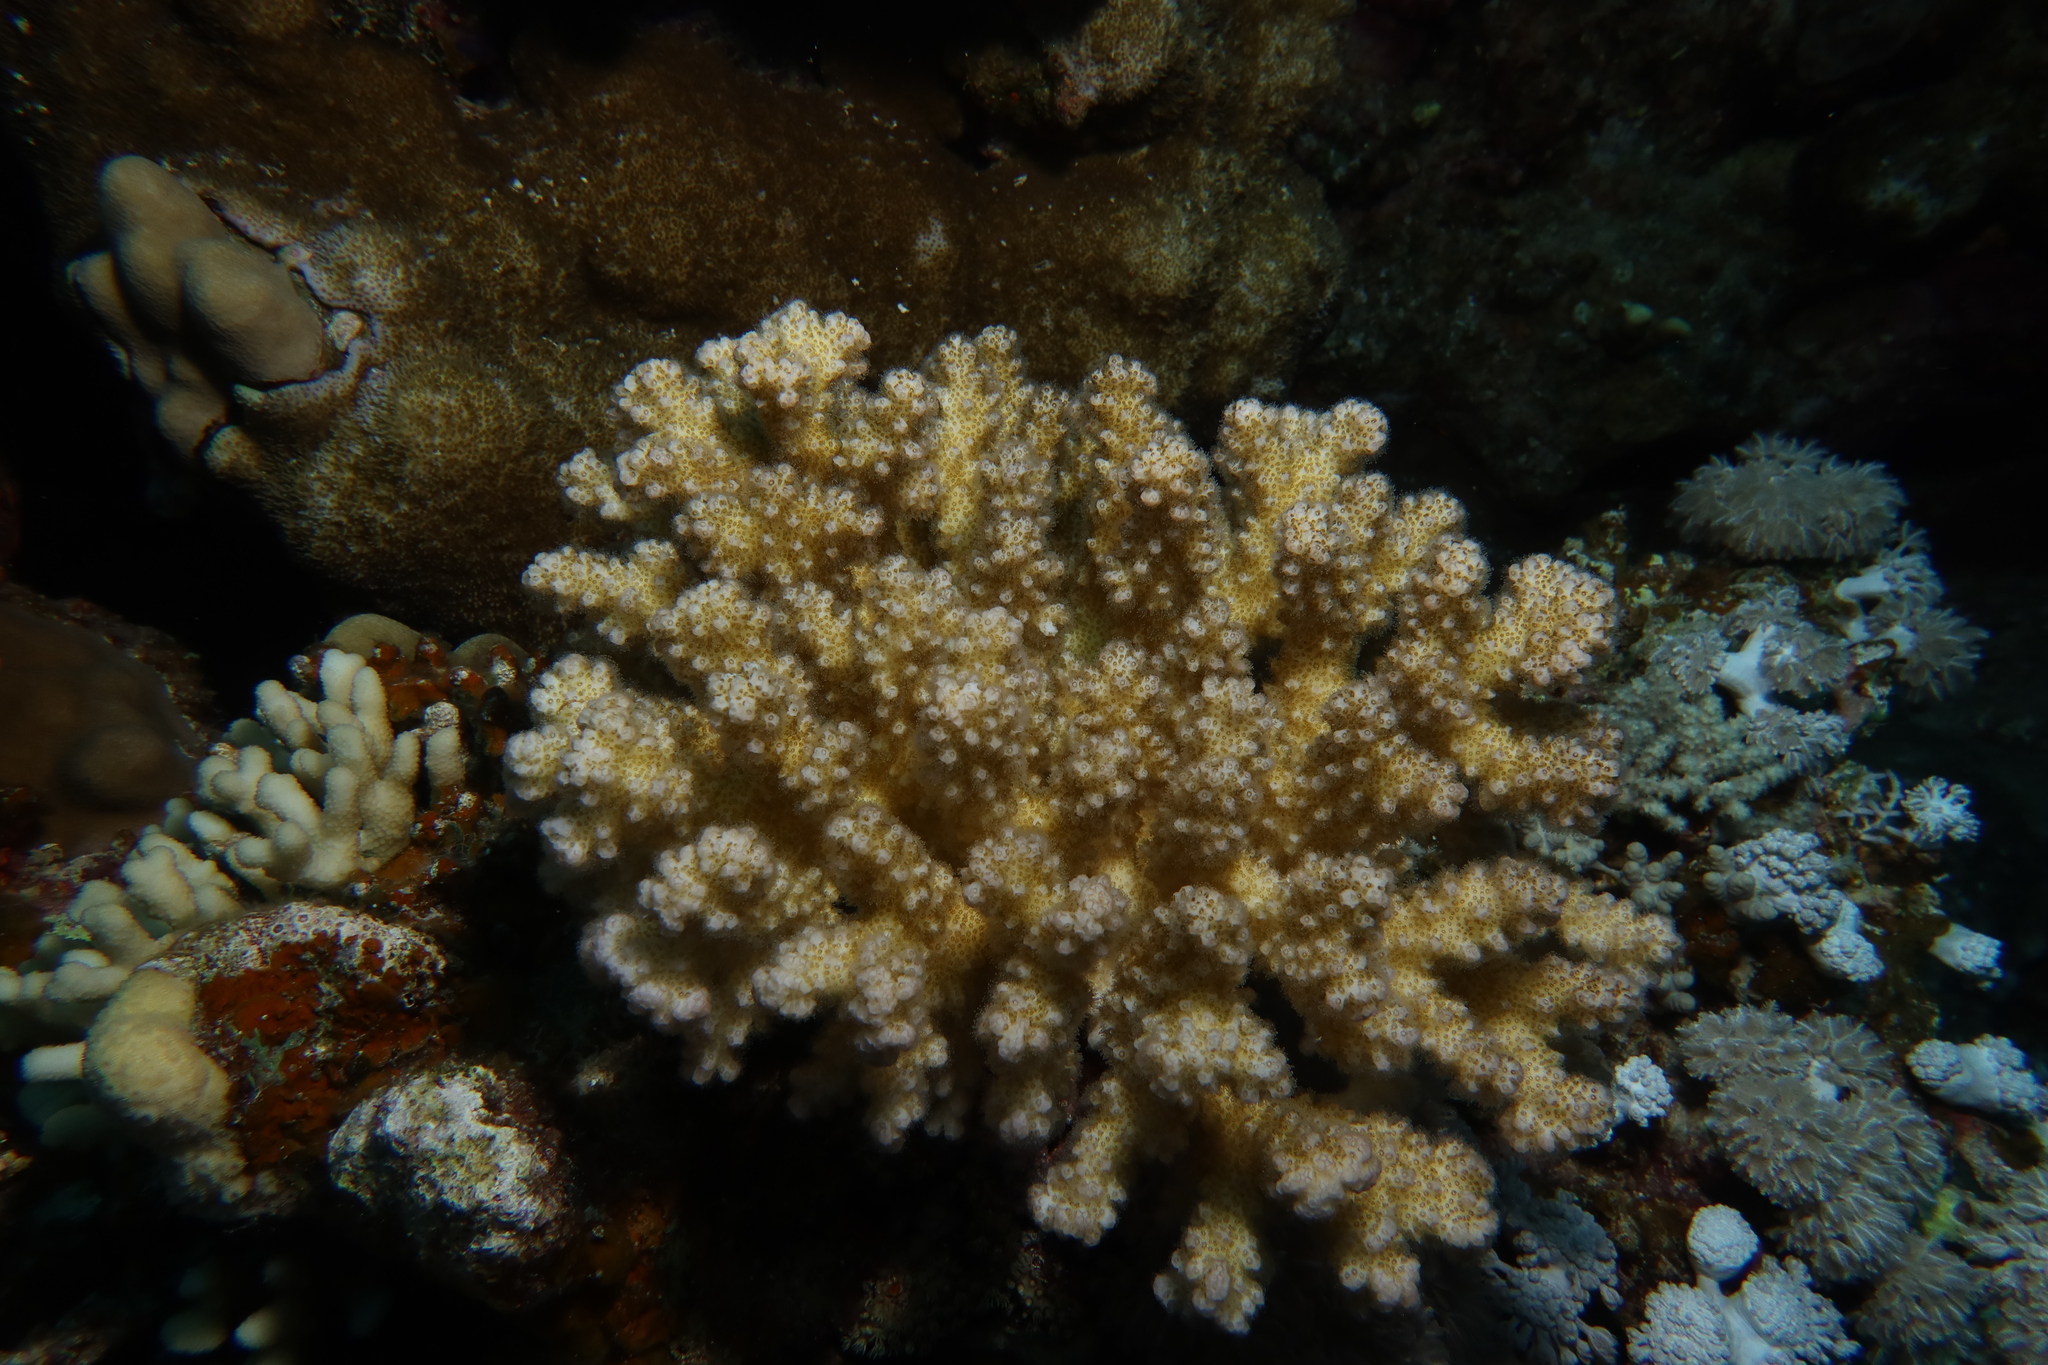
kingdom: Animalia
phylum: Cnidaria
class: Anthozoa
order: Scleractinia
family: Pocilloporidae
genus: Pocillopora
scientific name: Pocillopora verrucosa
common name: Cauliflower coral
